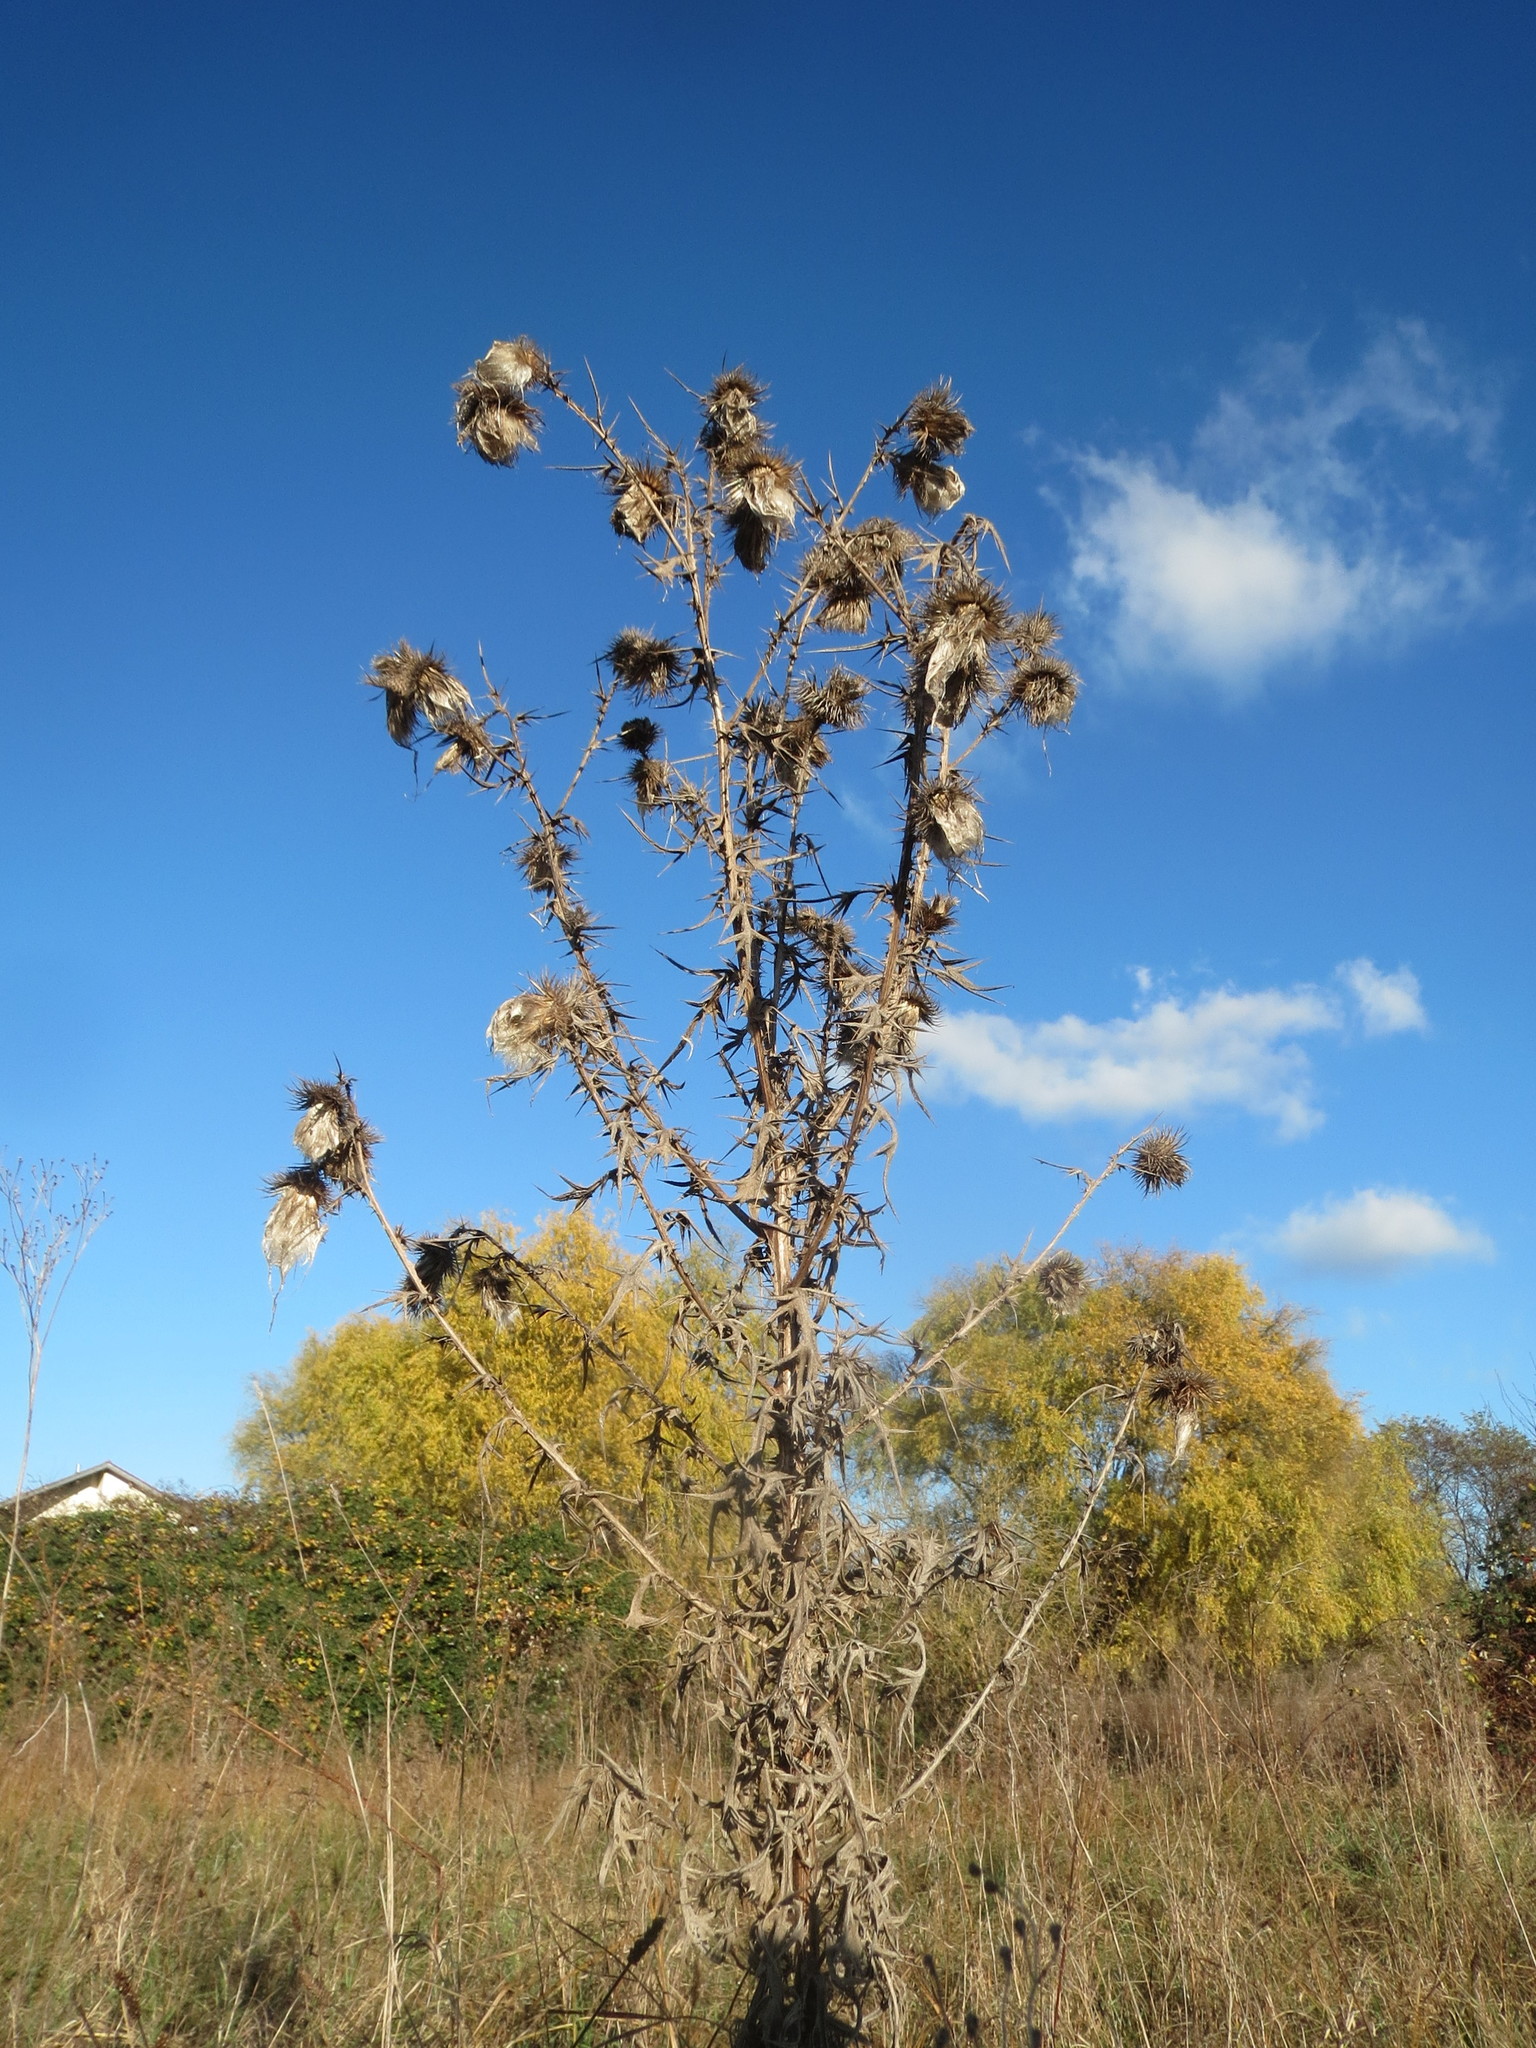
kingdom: Plantae
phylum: Tracheophyta
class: Magnoliopsida
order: Asterales
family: Asteraceae
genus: Cirsium
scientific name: Cirsium vulgare
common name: Bull thistle
